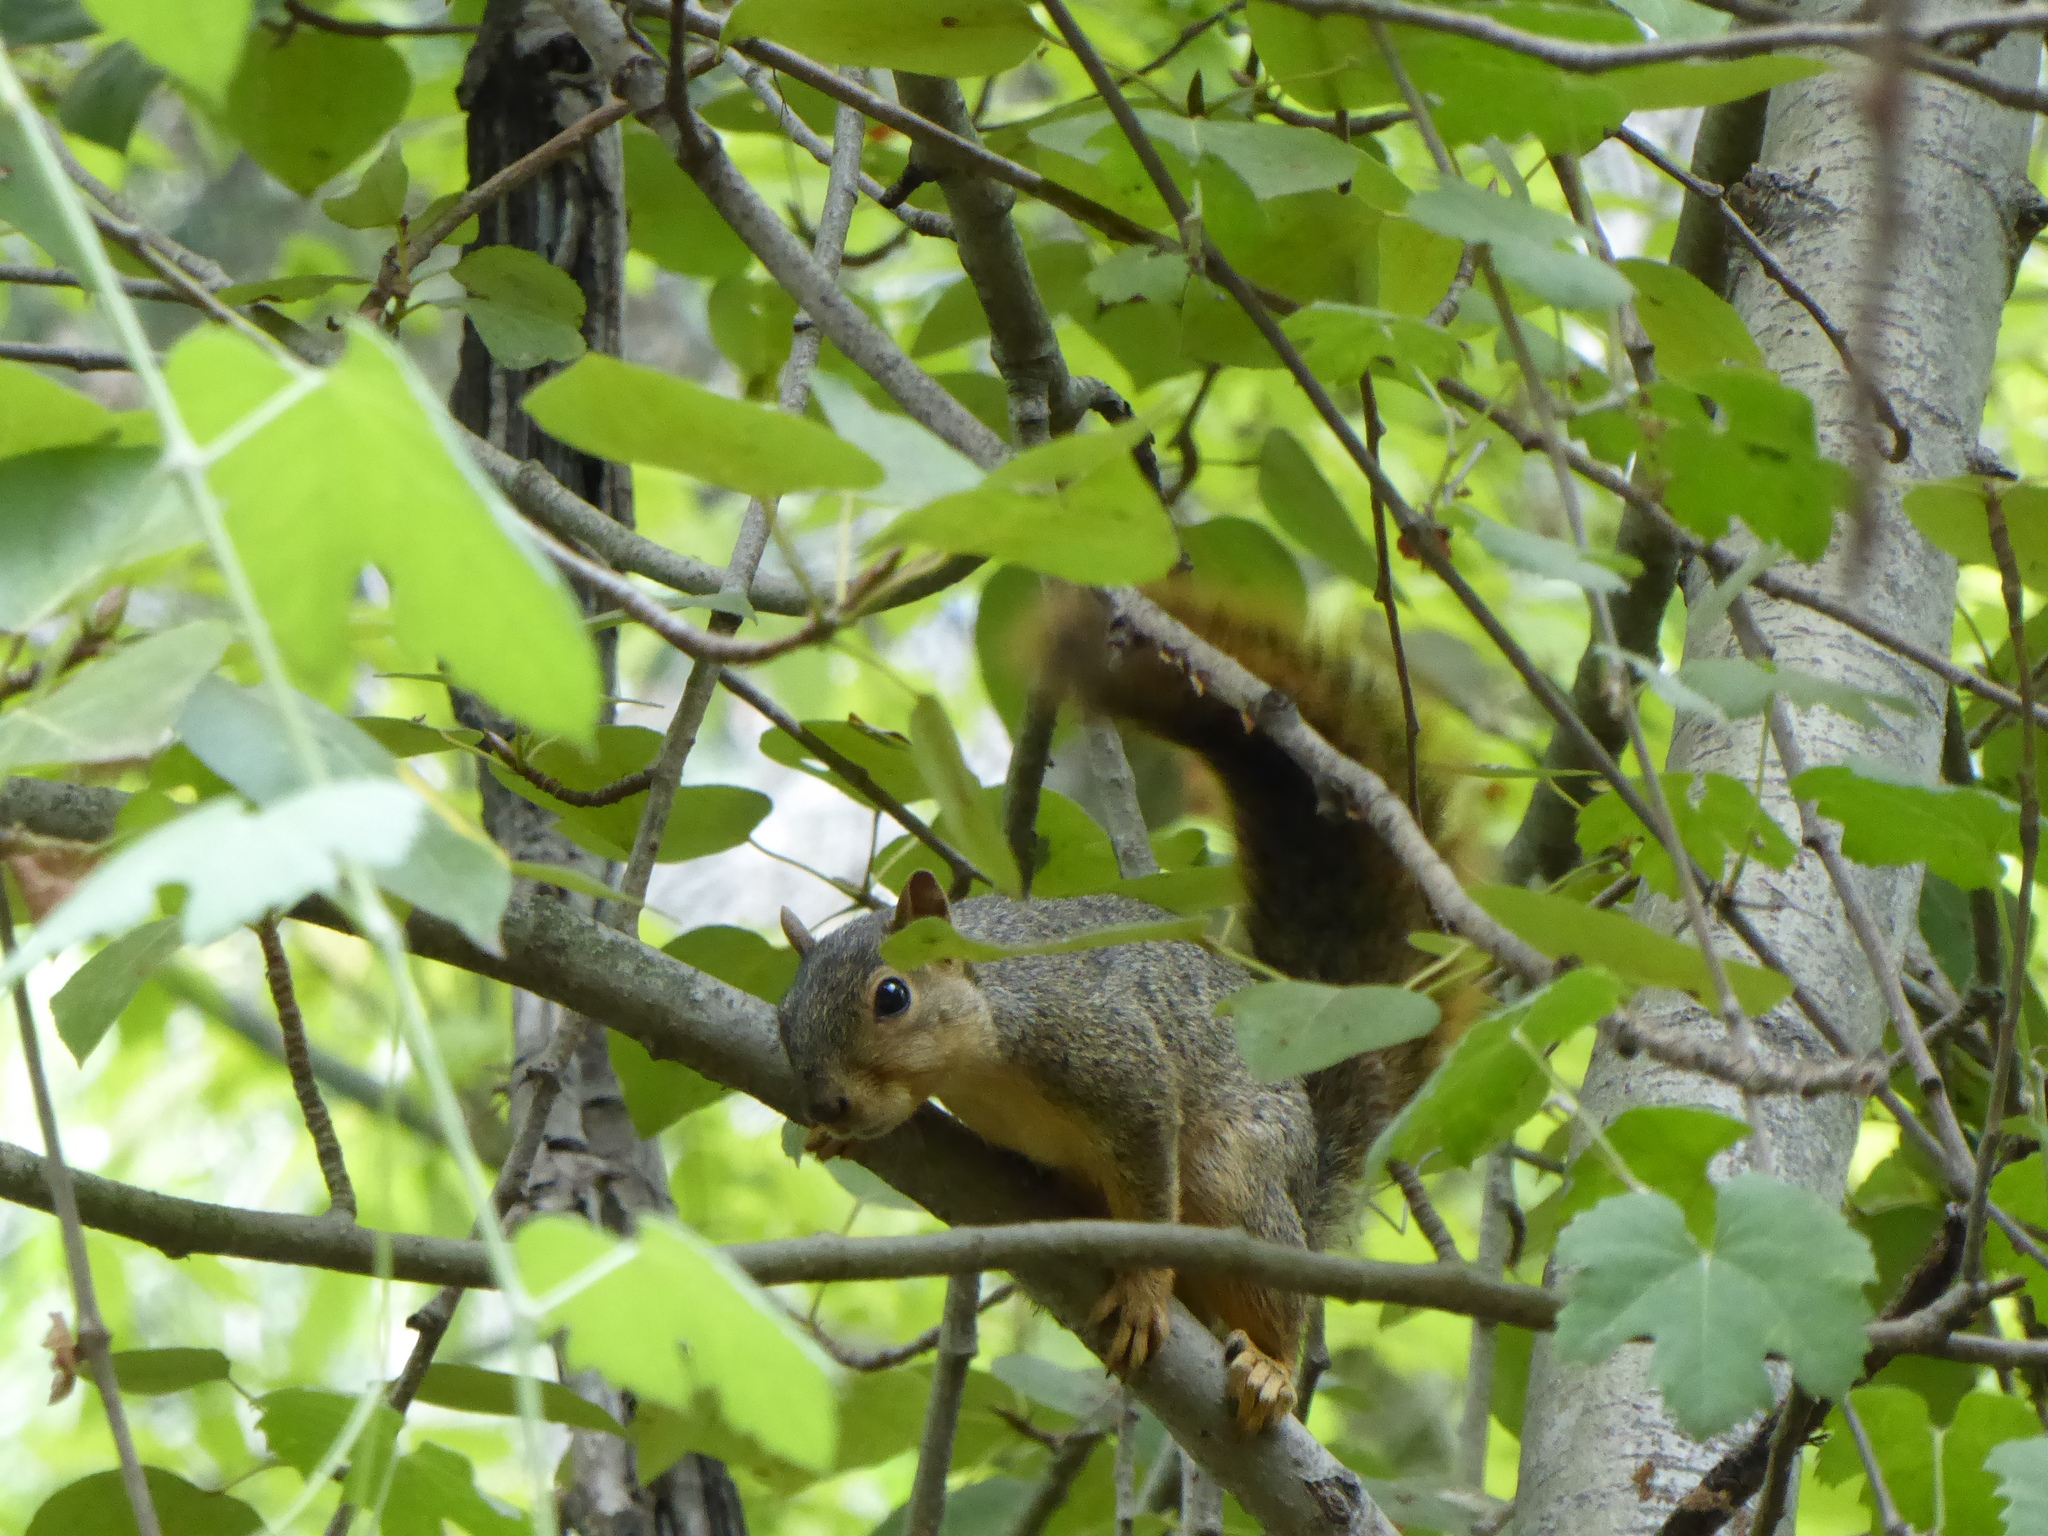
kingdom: Animalia
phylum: Chordata
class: Mammalia
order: Rodentia
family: Sciuridae
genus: Sciurus
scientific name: Sciurus niger
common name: Fox squirrel
